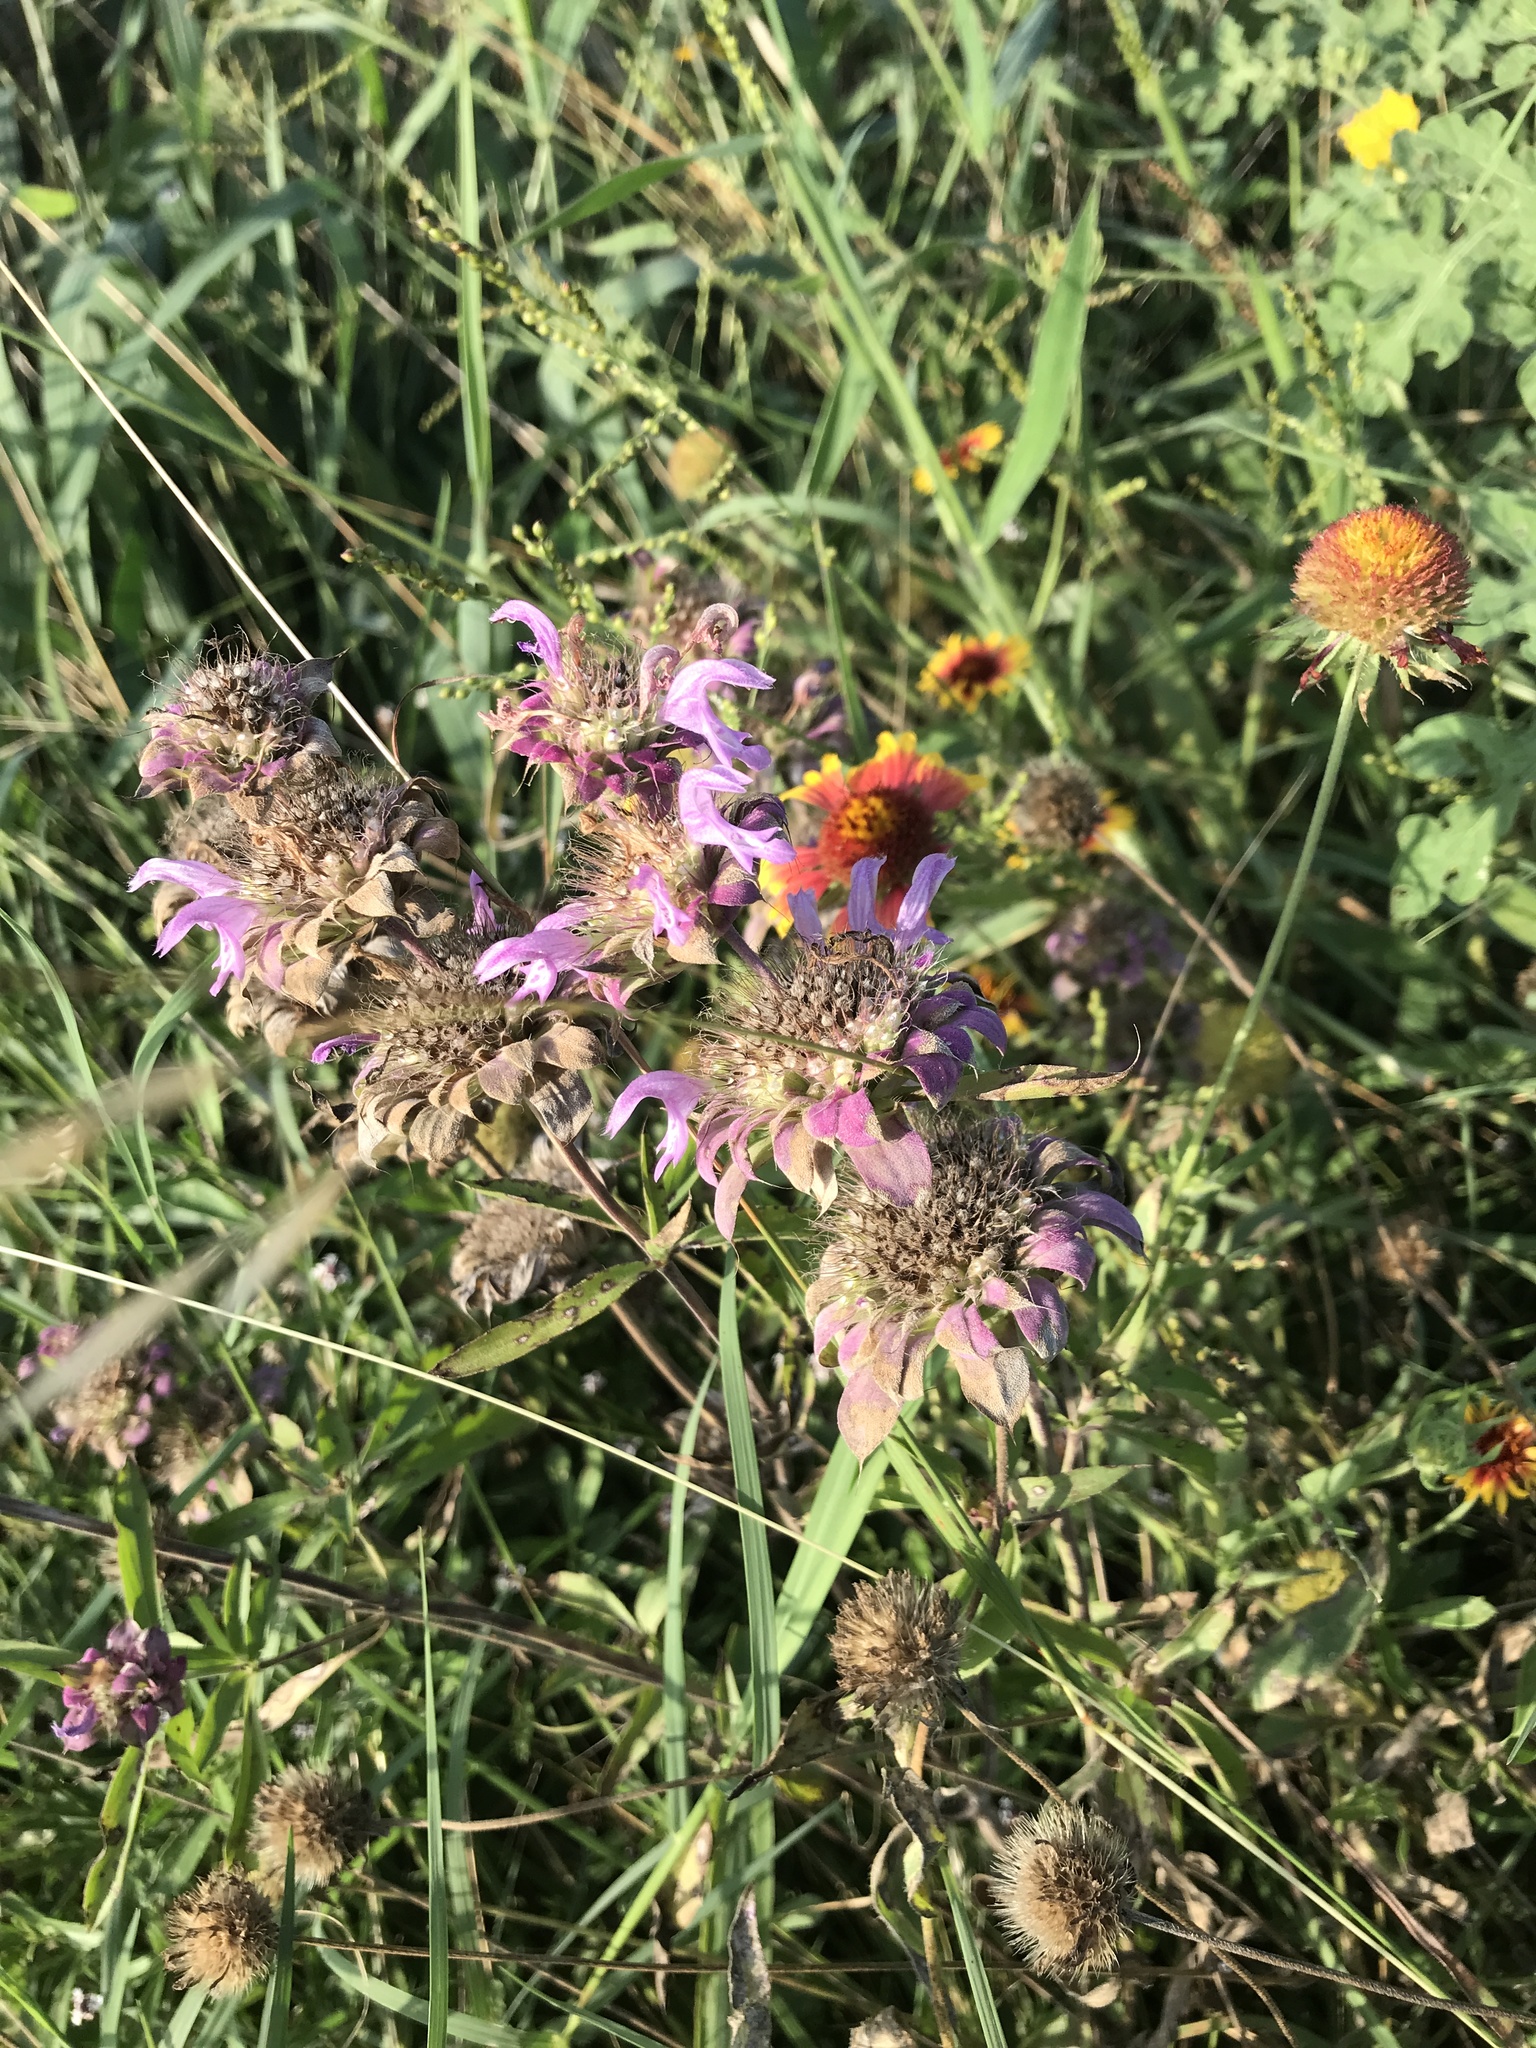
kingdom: Plantae
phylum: Tracheophyta
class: Magnoliopsida
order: Lamiales
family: Lamiaceae
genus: Monarda
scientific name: Monarda citriodora
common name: Lemon beebalm
